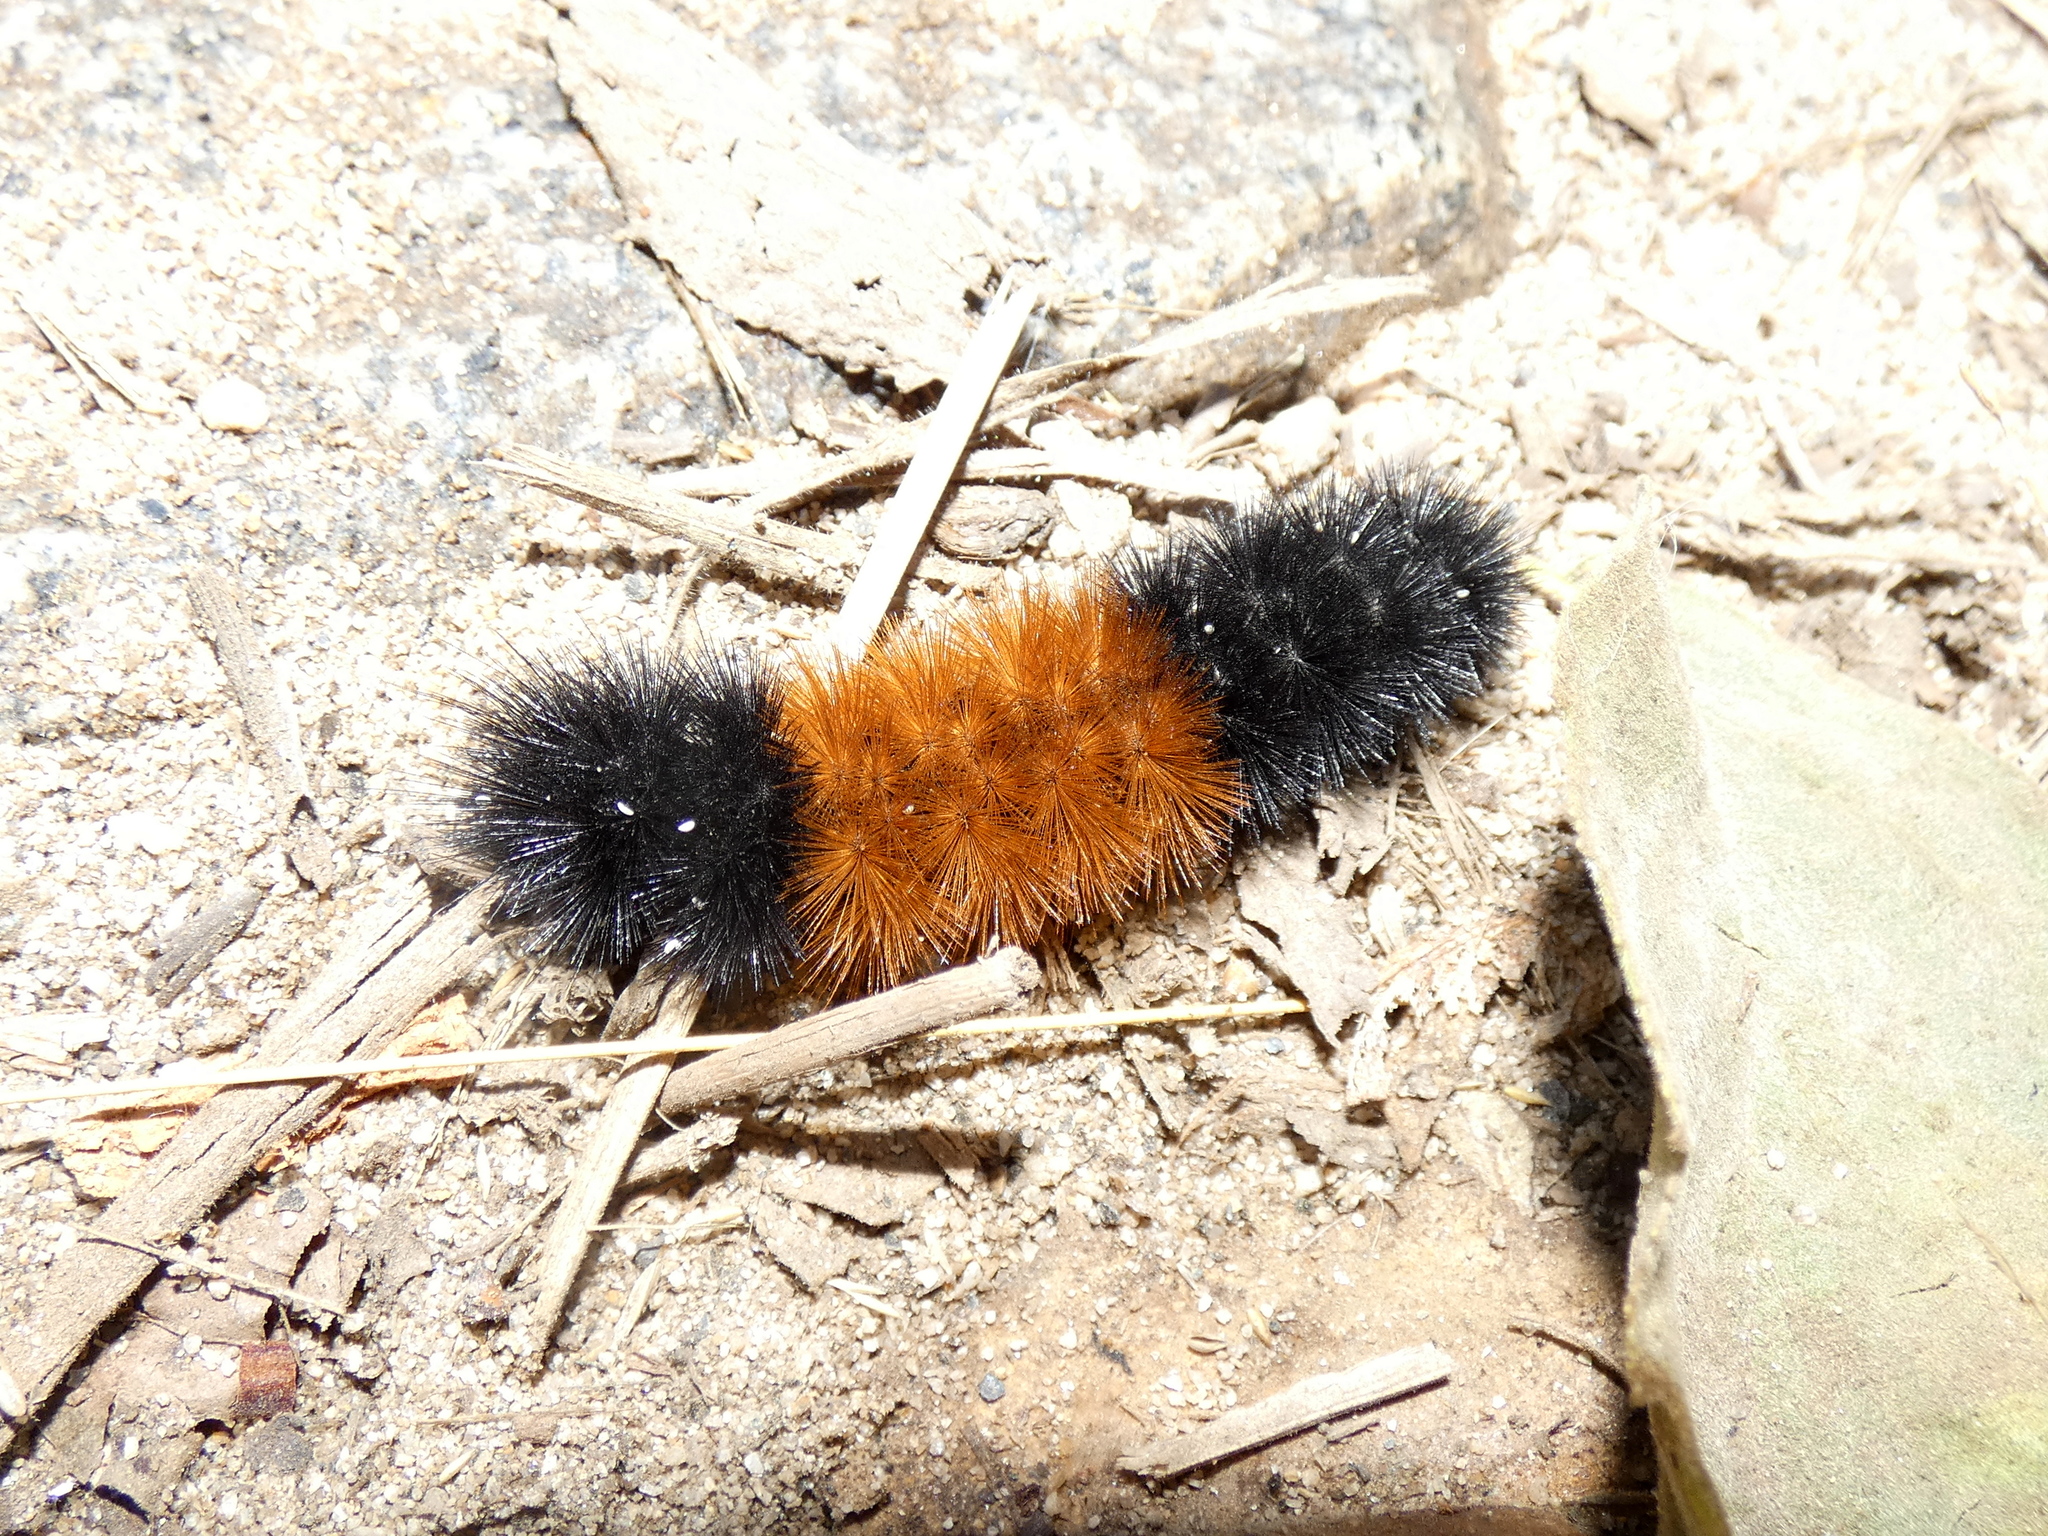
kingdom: Animalia
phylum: Arthropoda
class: Insecta
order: Lepidoptera
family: Erebidae
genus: Pyrrharctia
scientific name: Pyrrharctia isabella
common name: Isabella tiger moth
